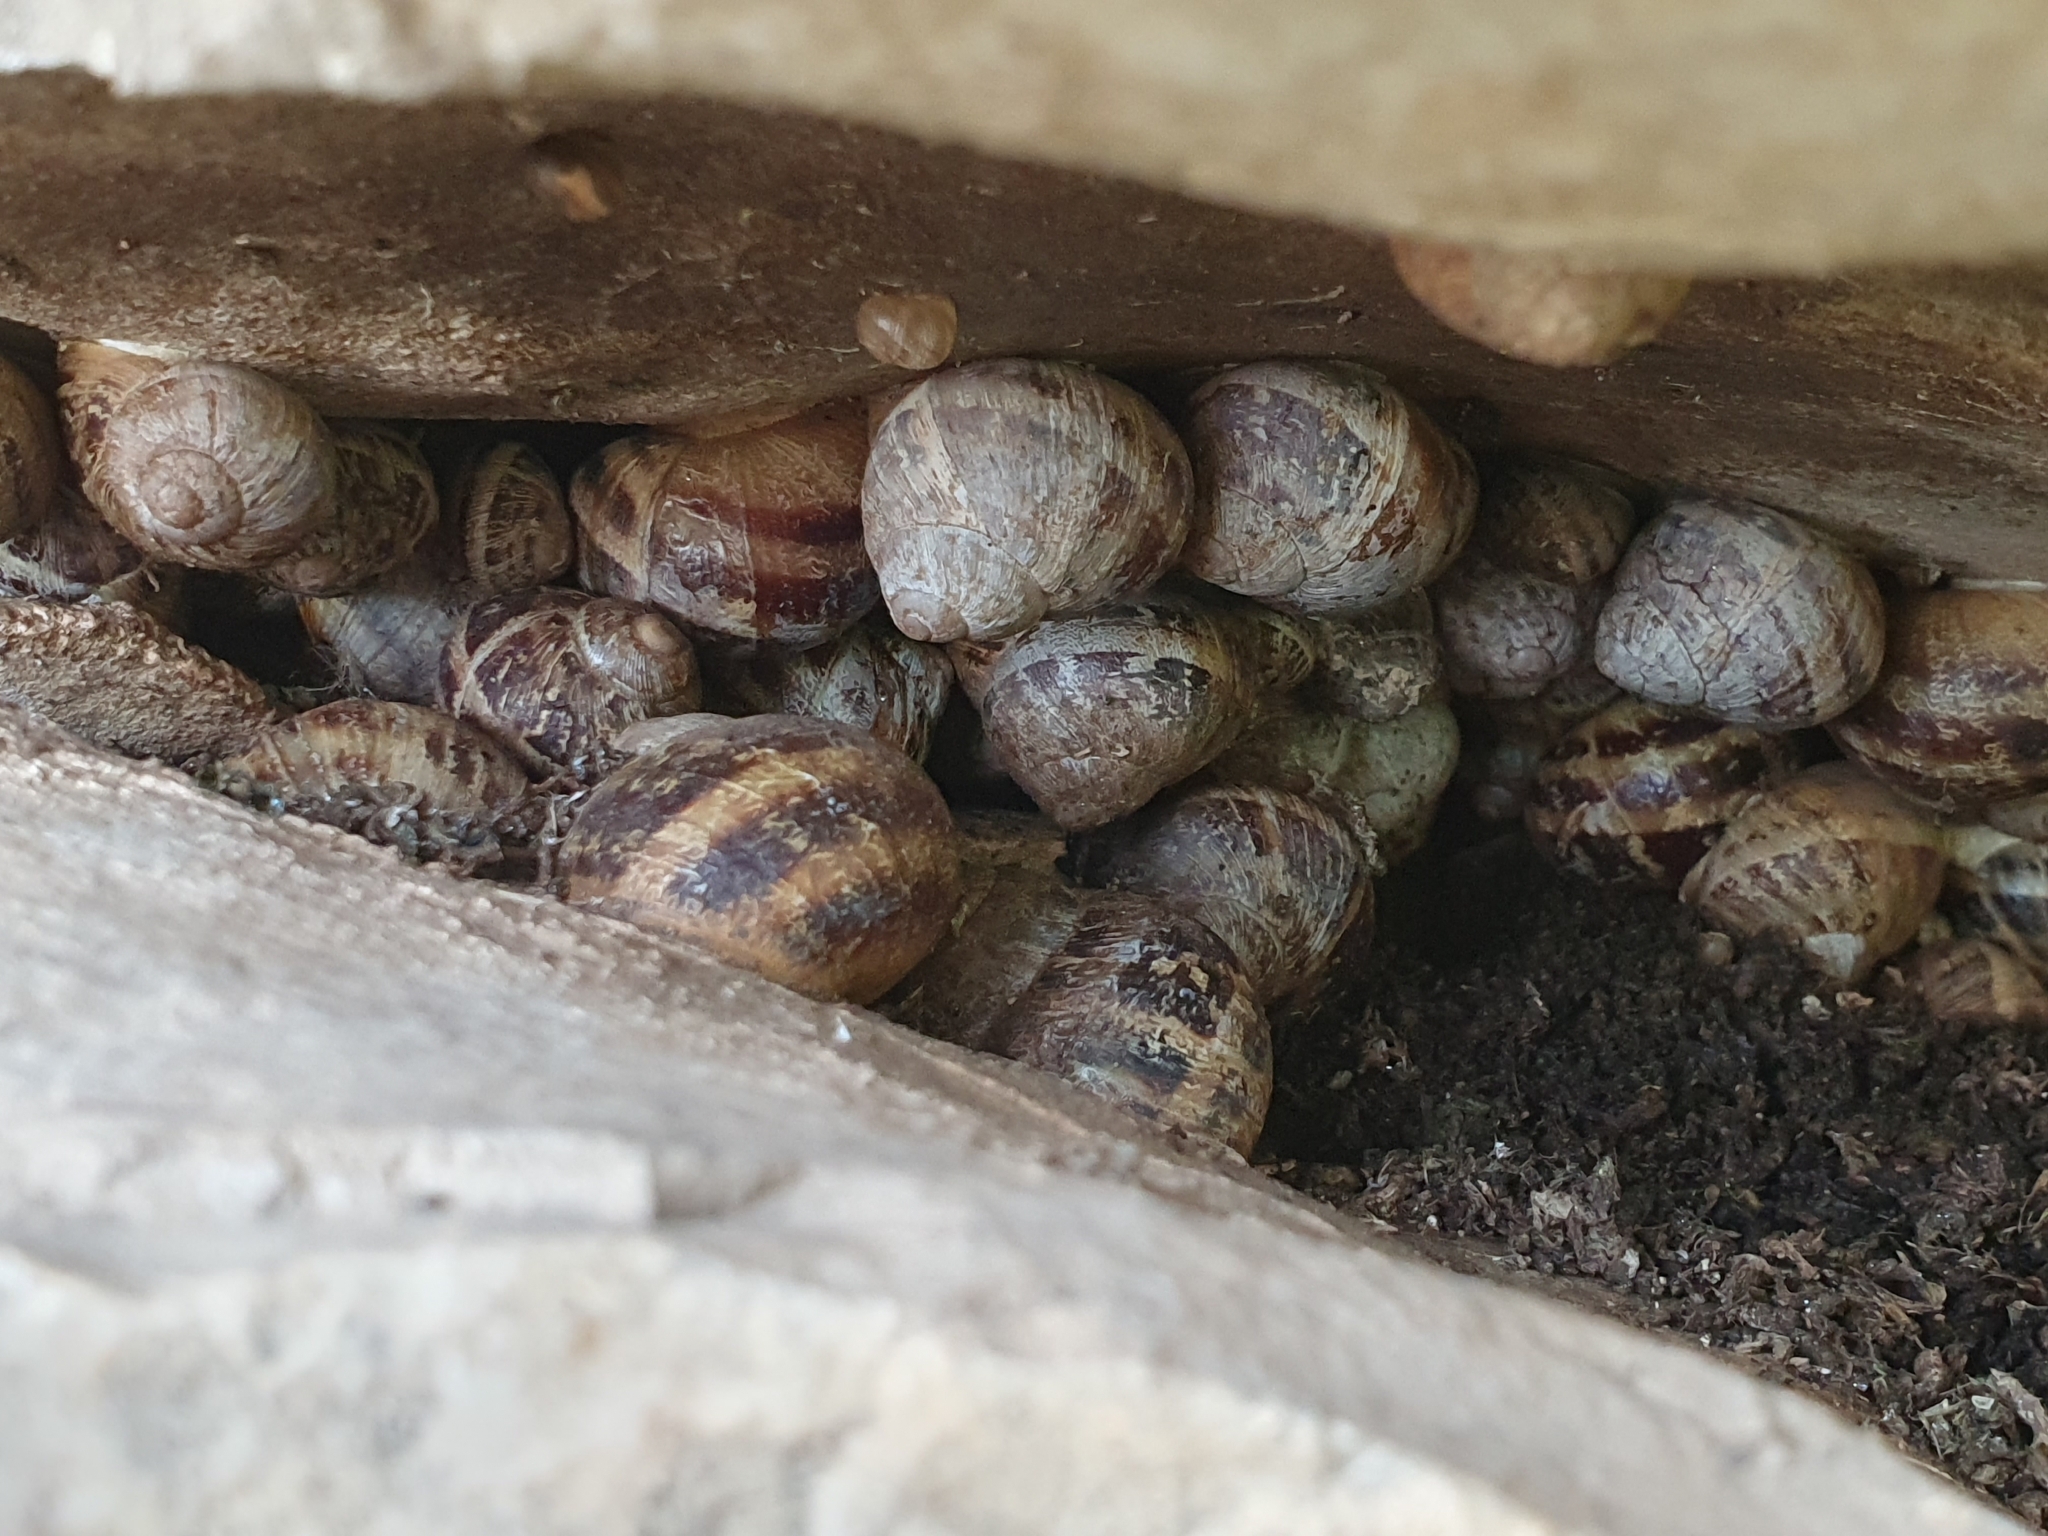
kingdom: Animalia
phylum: Mollusca
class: Gastropoda
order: Stylommatophora
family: Helicidae
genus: Cornu
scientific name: Cornu aspersum
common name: Brown garden snail
